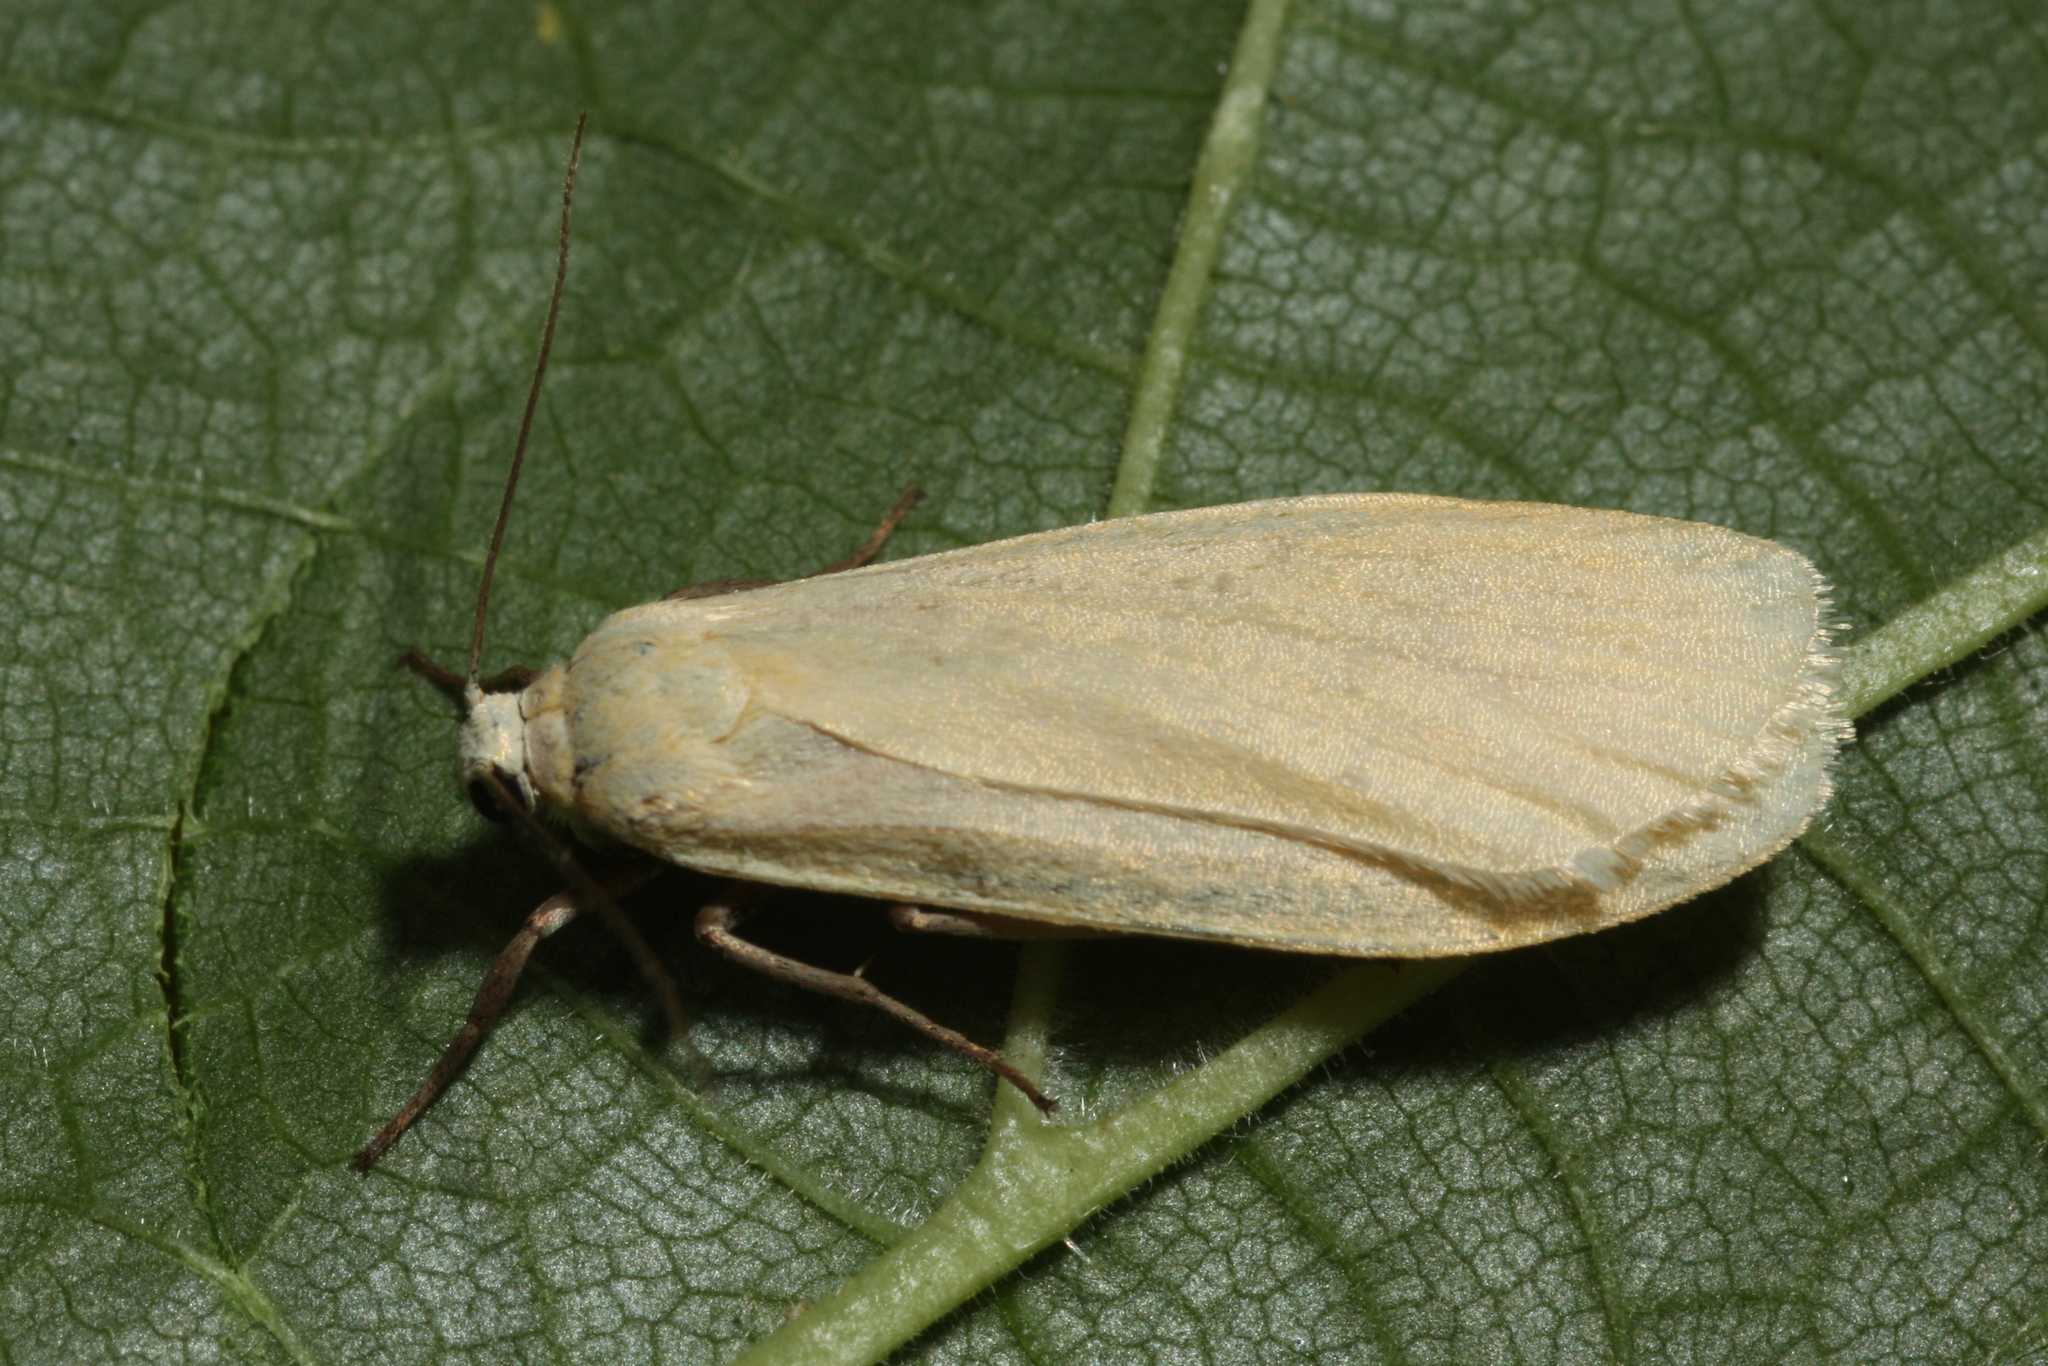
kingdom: Animalia
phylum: Arthropoda
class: Insecta
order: Lepidoptera
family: Erebidae
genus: Wittia
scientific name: Wittia sororcula
